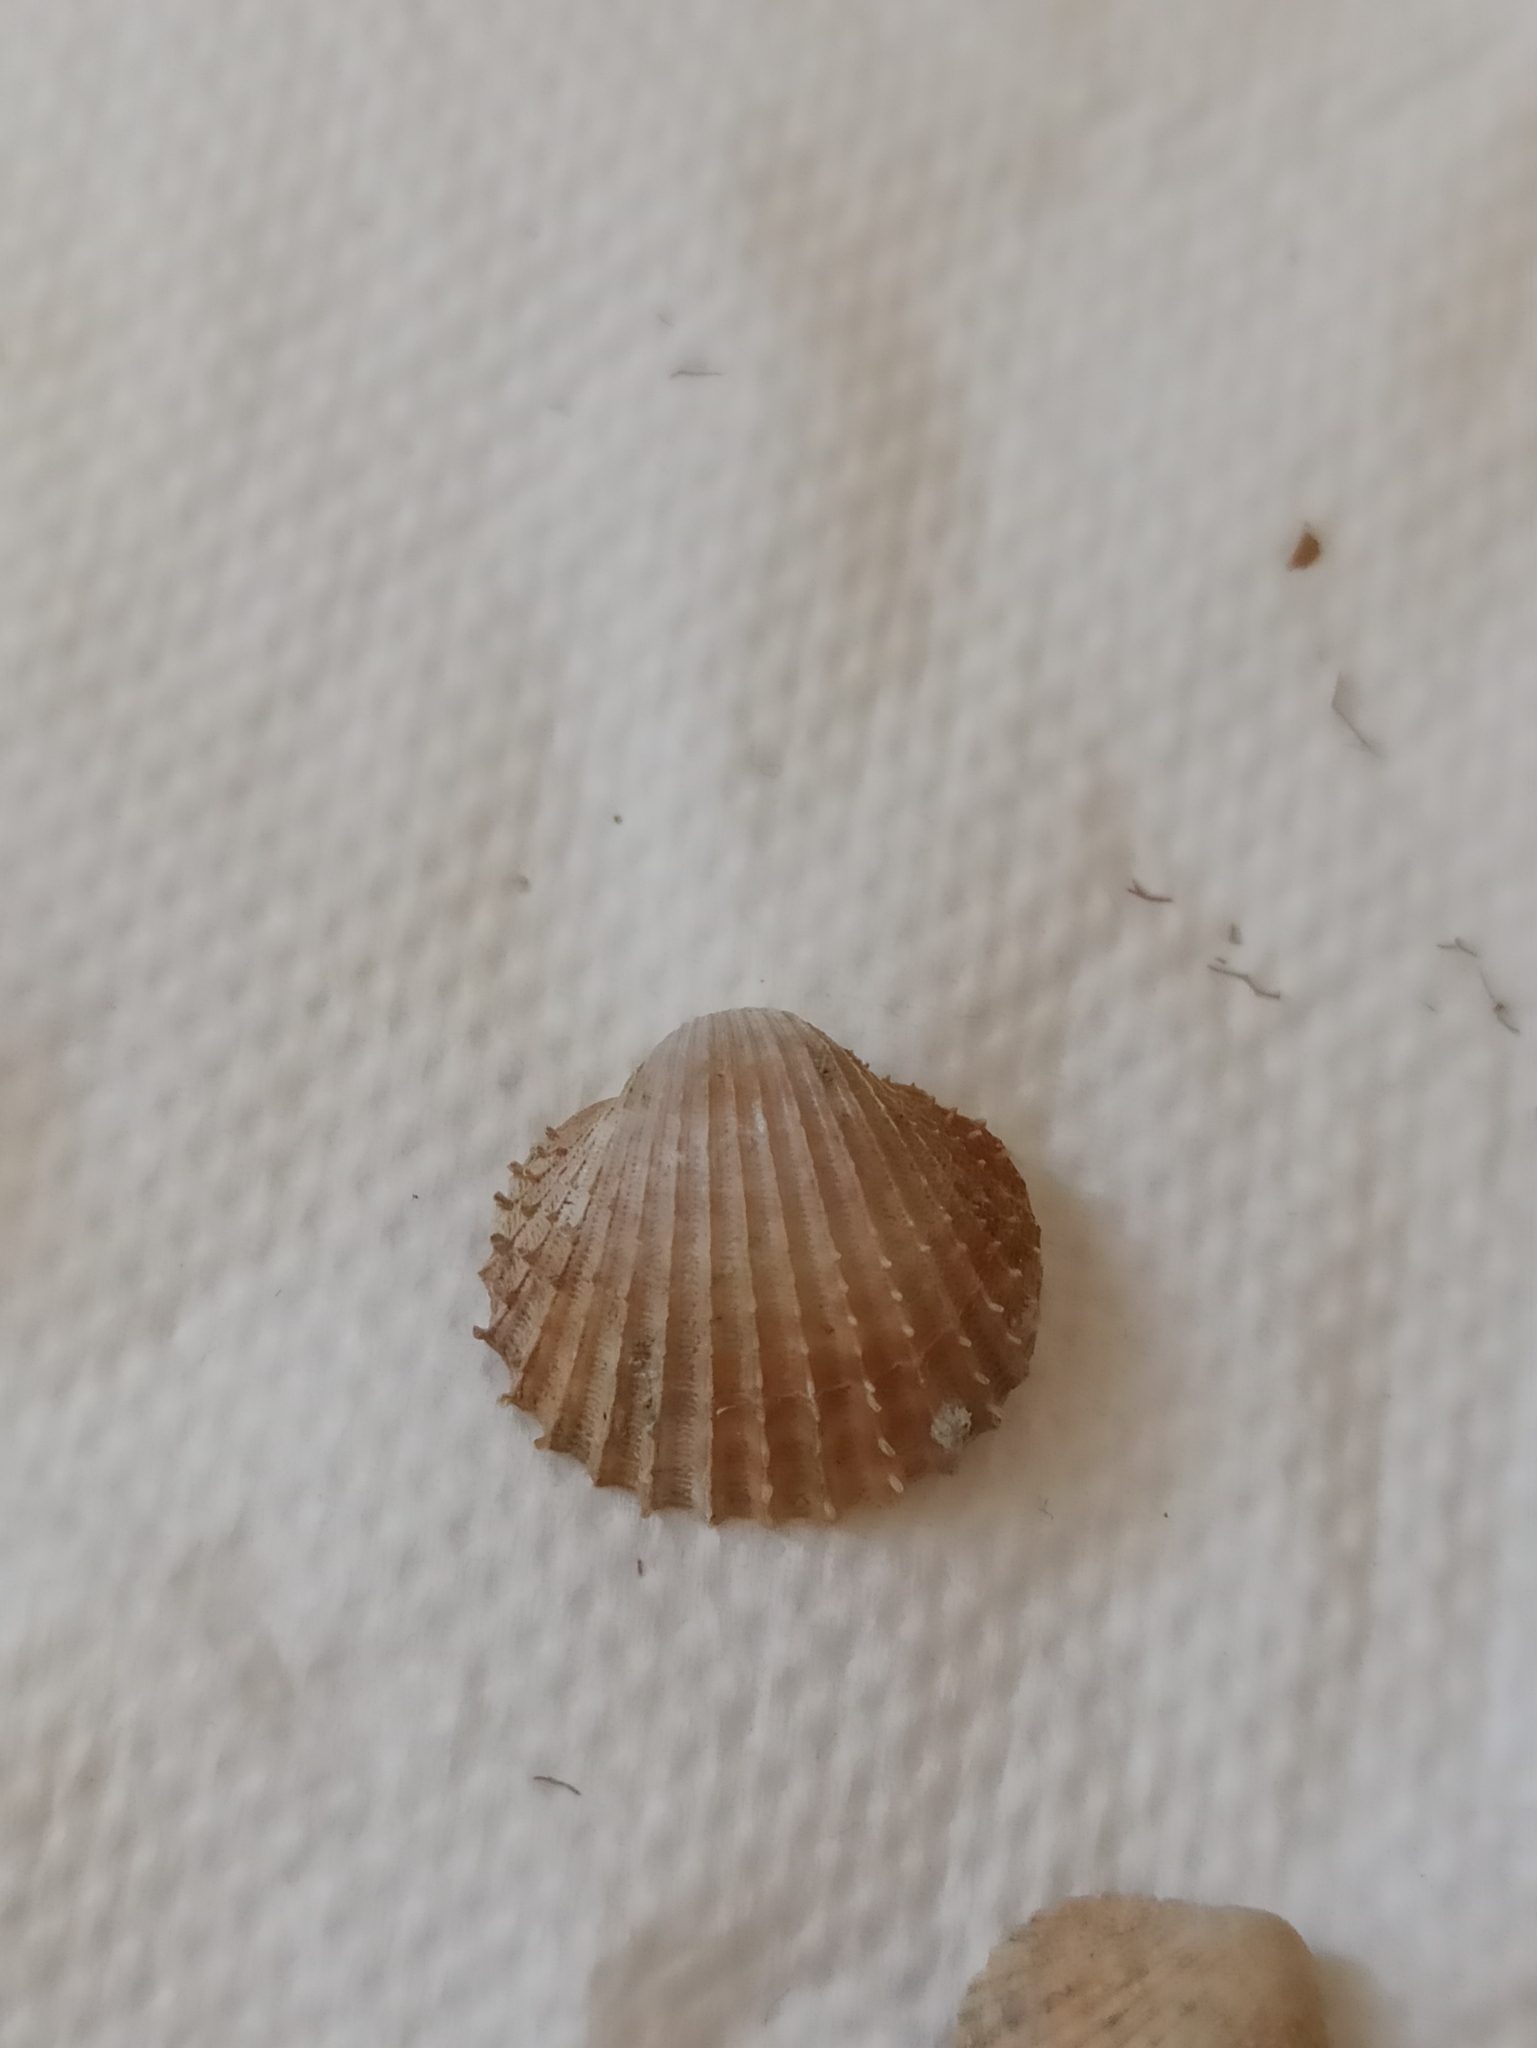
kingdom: Animalia
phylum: Mollusca
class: Bivalvia
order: Cardiida
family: Cardiidae
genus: Acanthocardia
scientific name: Acanthocardia aculeata
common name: Spiny cockle
